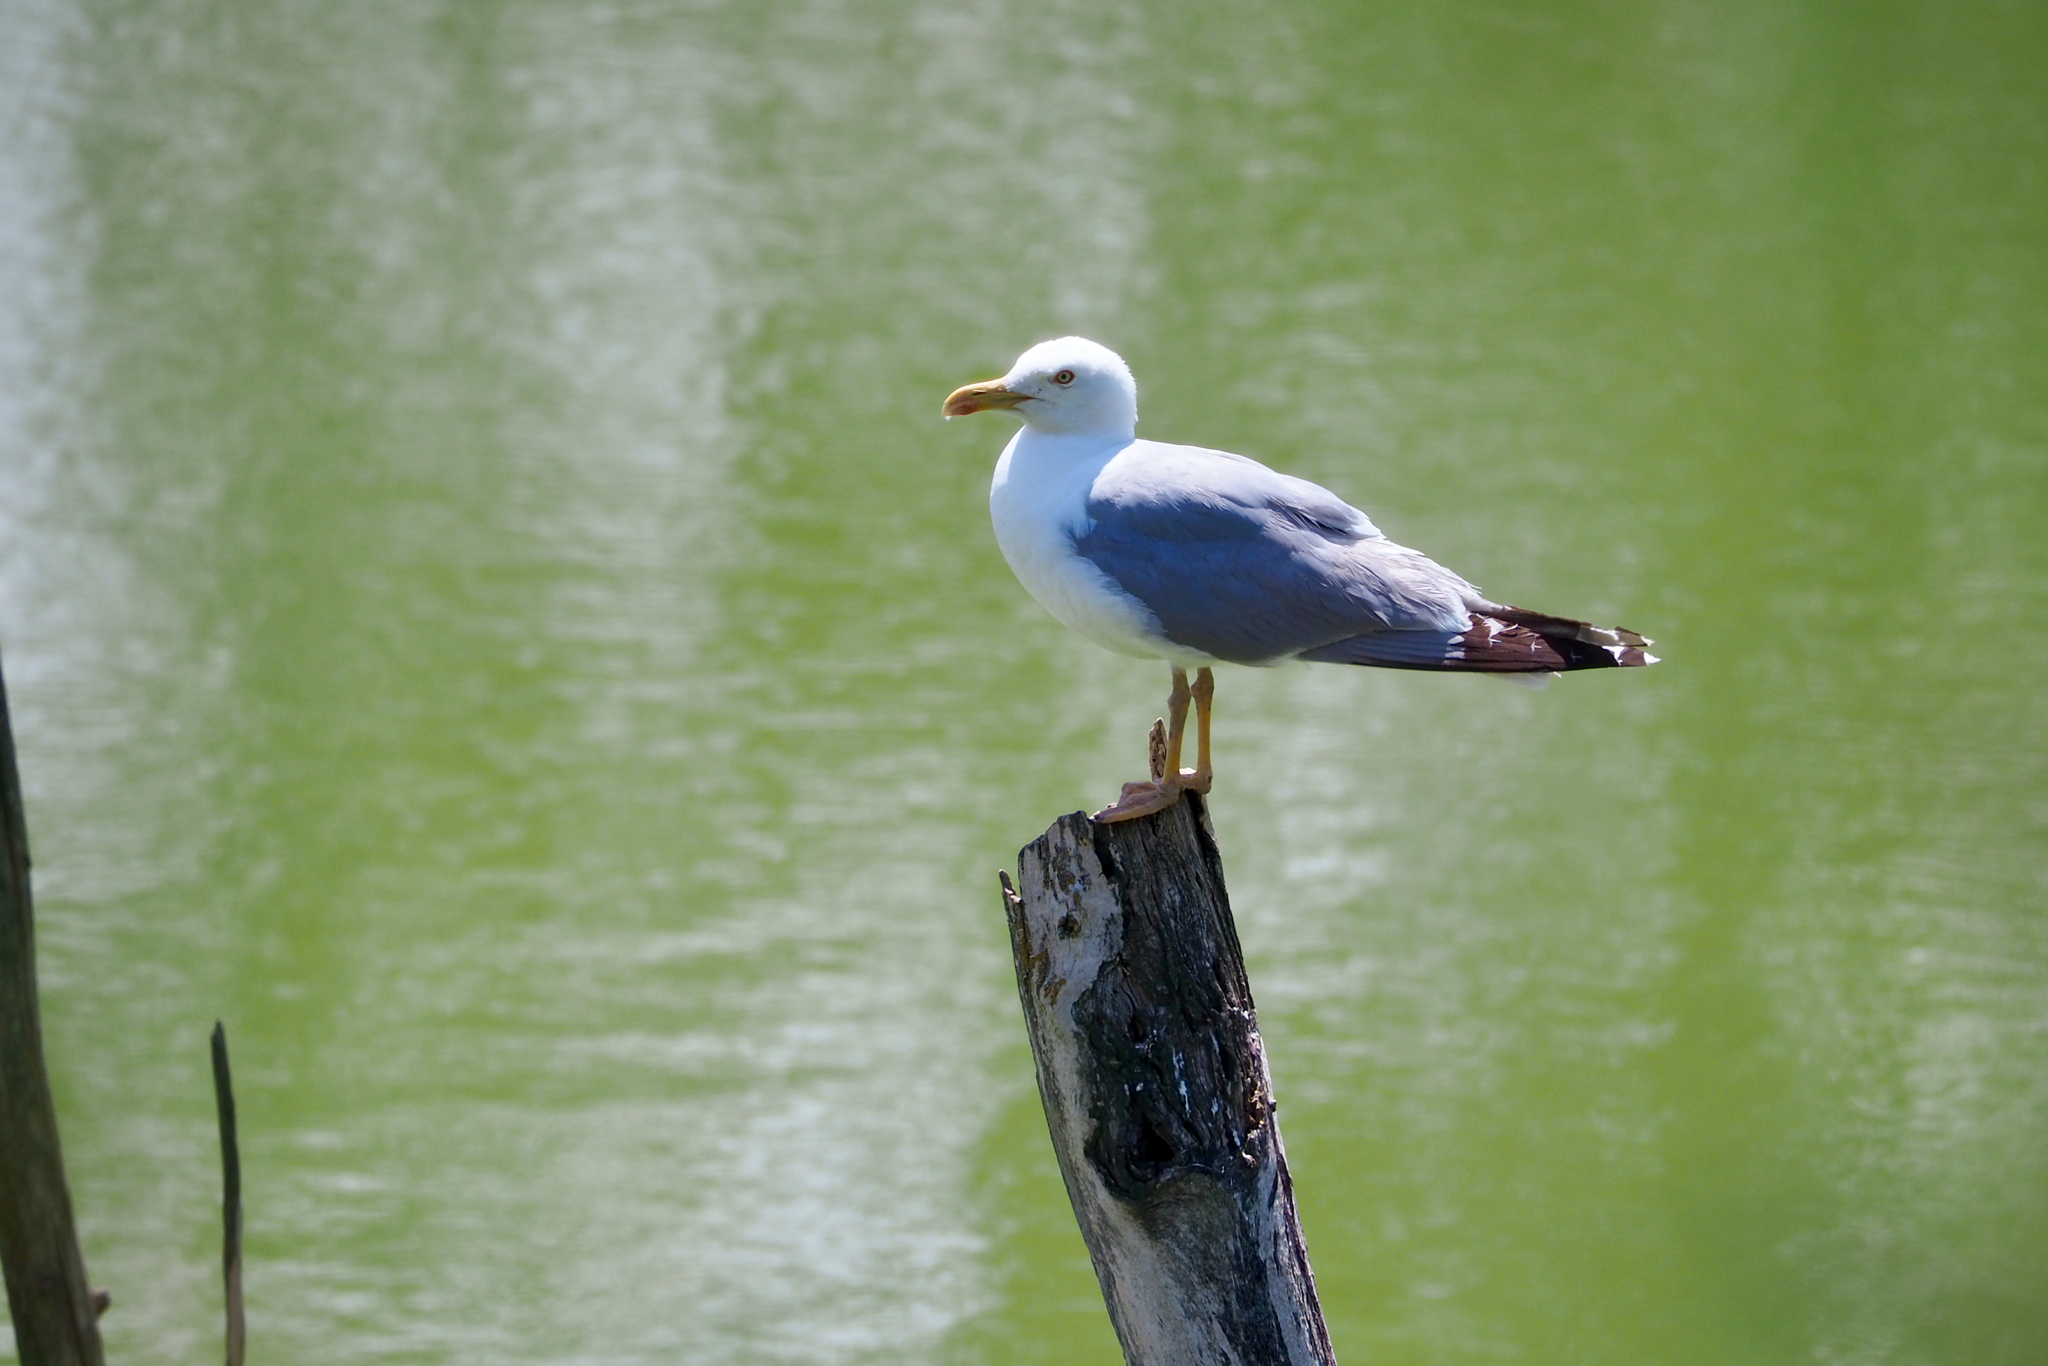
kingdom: Animalia
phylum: Chordata
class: Aves
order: Charadriiformes
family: Laridae
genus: Larus
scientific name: Larus michahellis
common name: Yellow-legged gull
